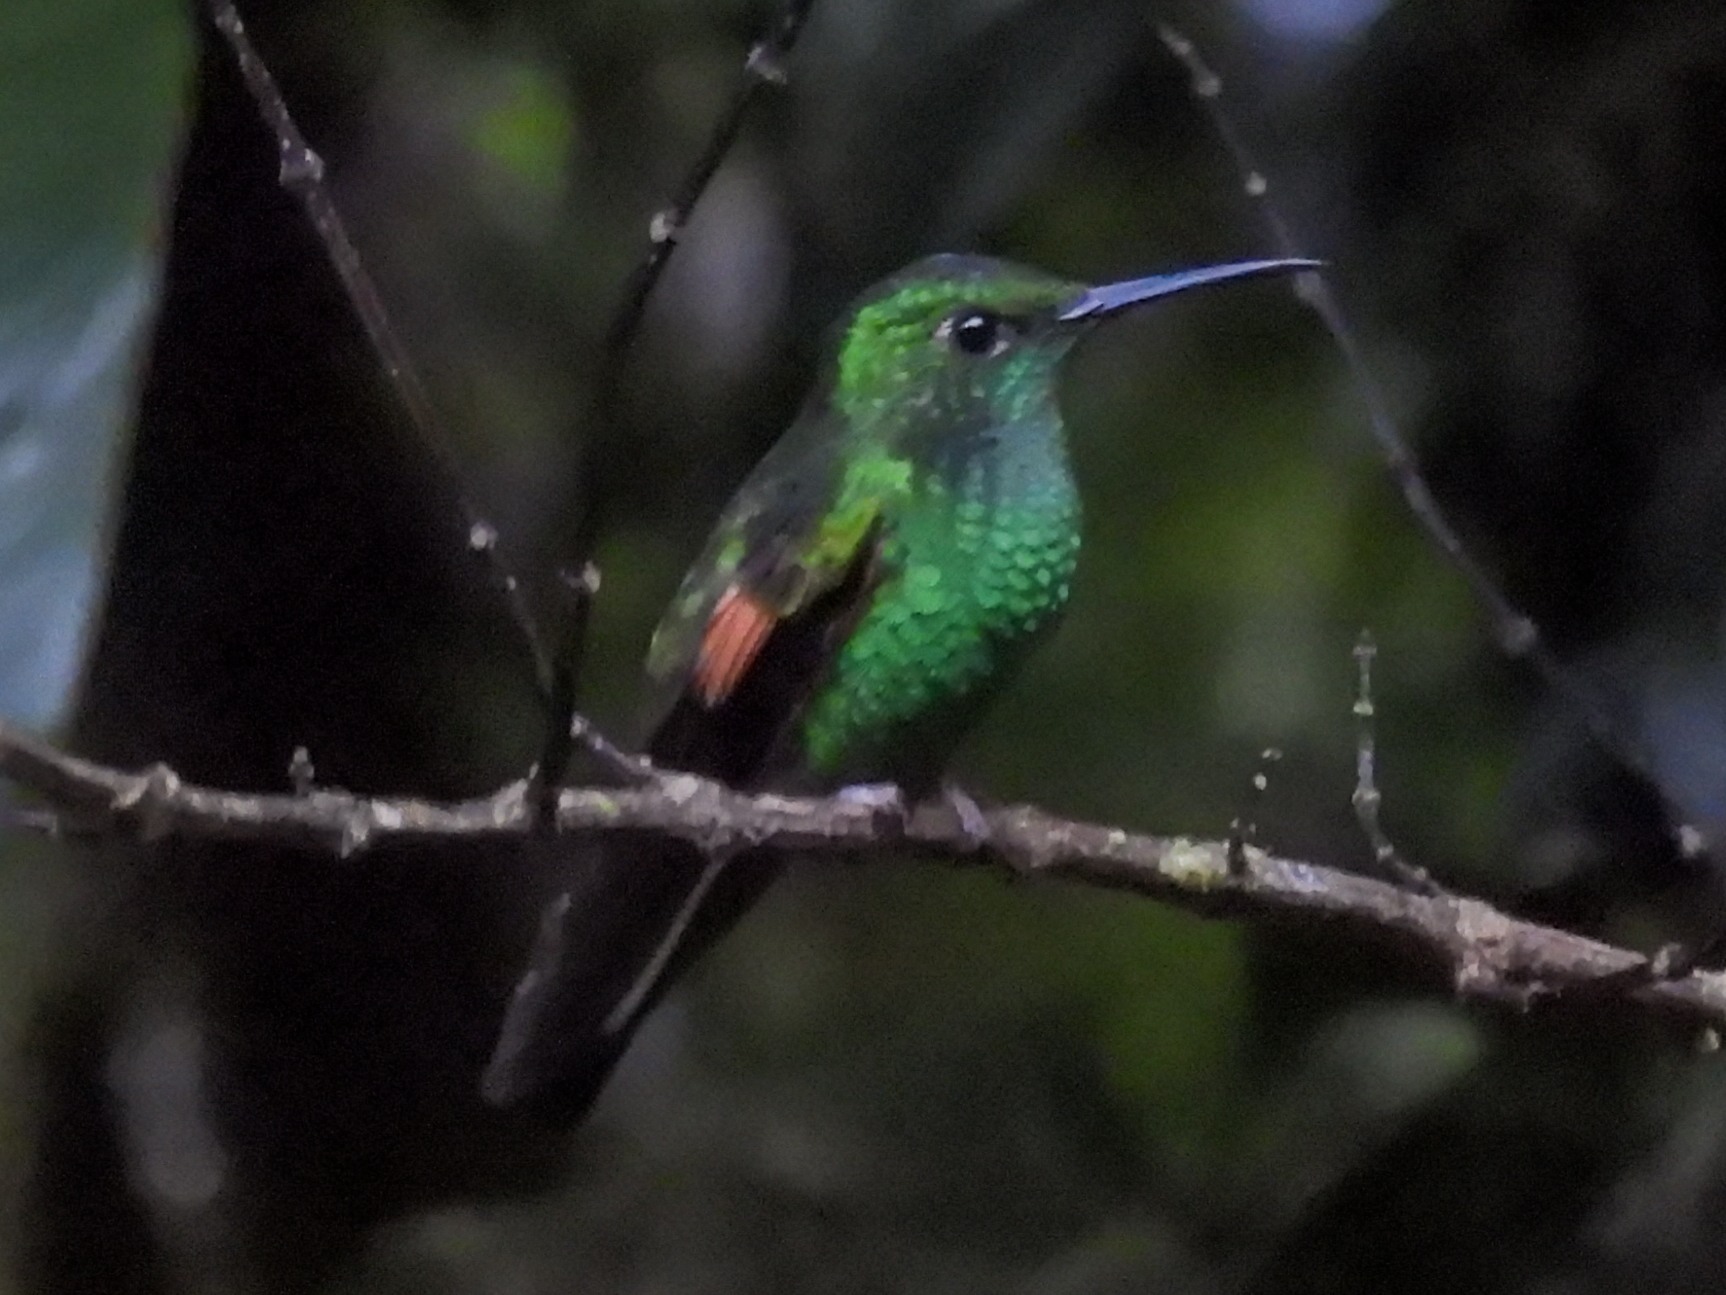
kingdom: Animalia
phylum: Chordata
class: Aves
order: Apodiformes
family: Trochilidae
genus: Eupherusa
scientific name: Eupherusa eximia
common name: Stripe-tailed hummingbird
